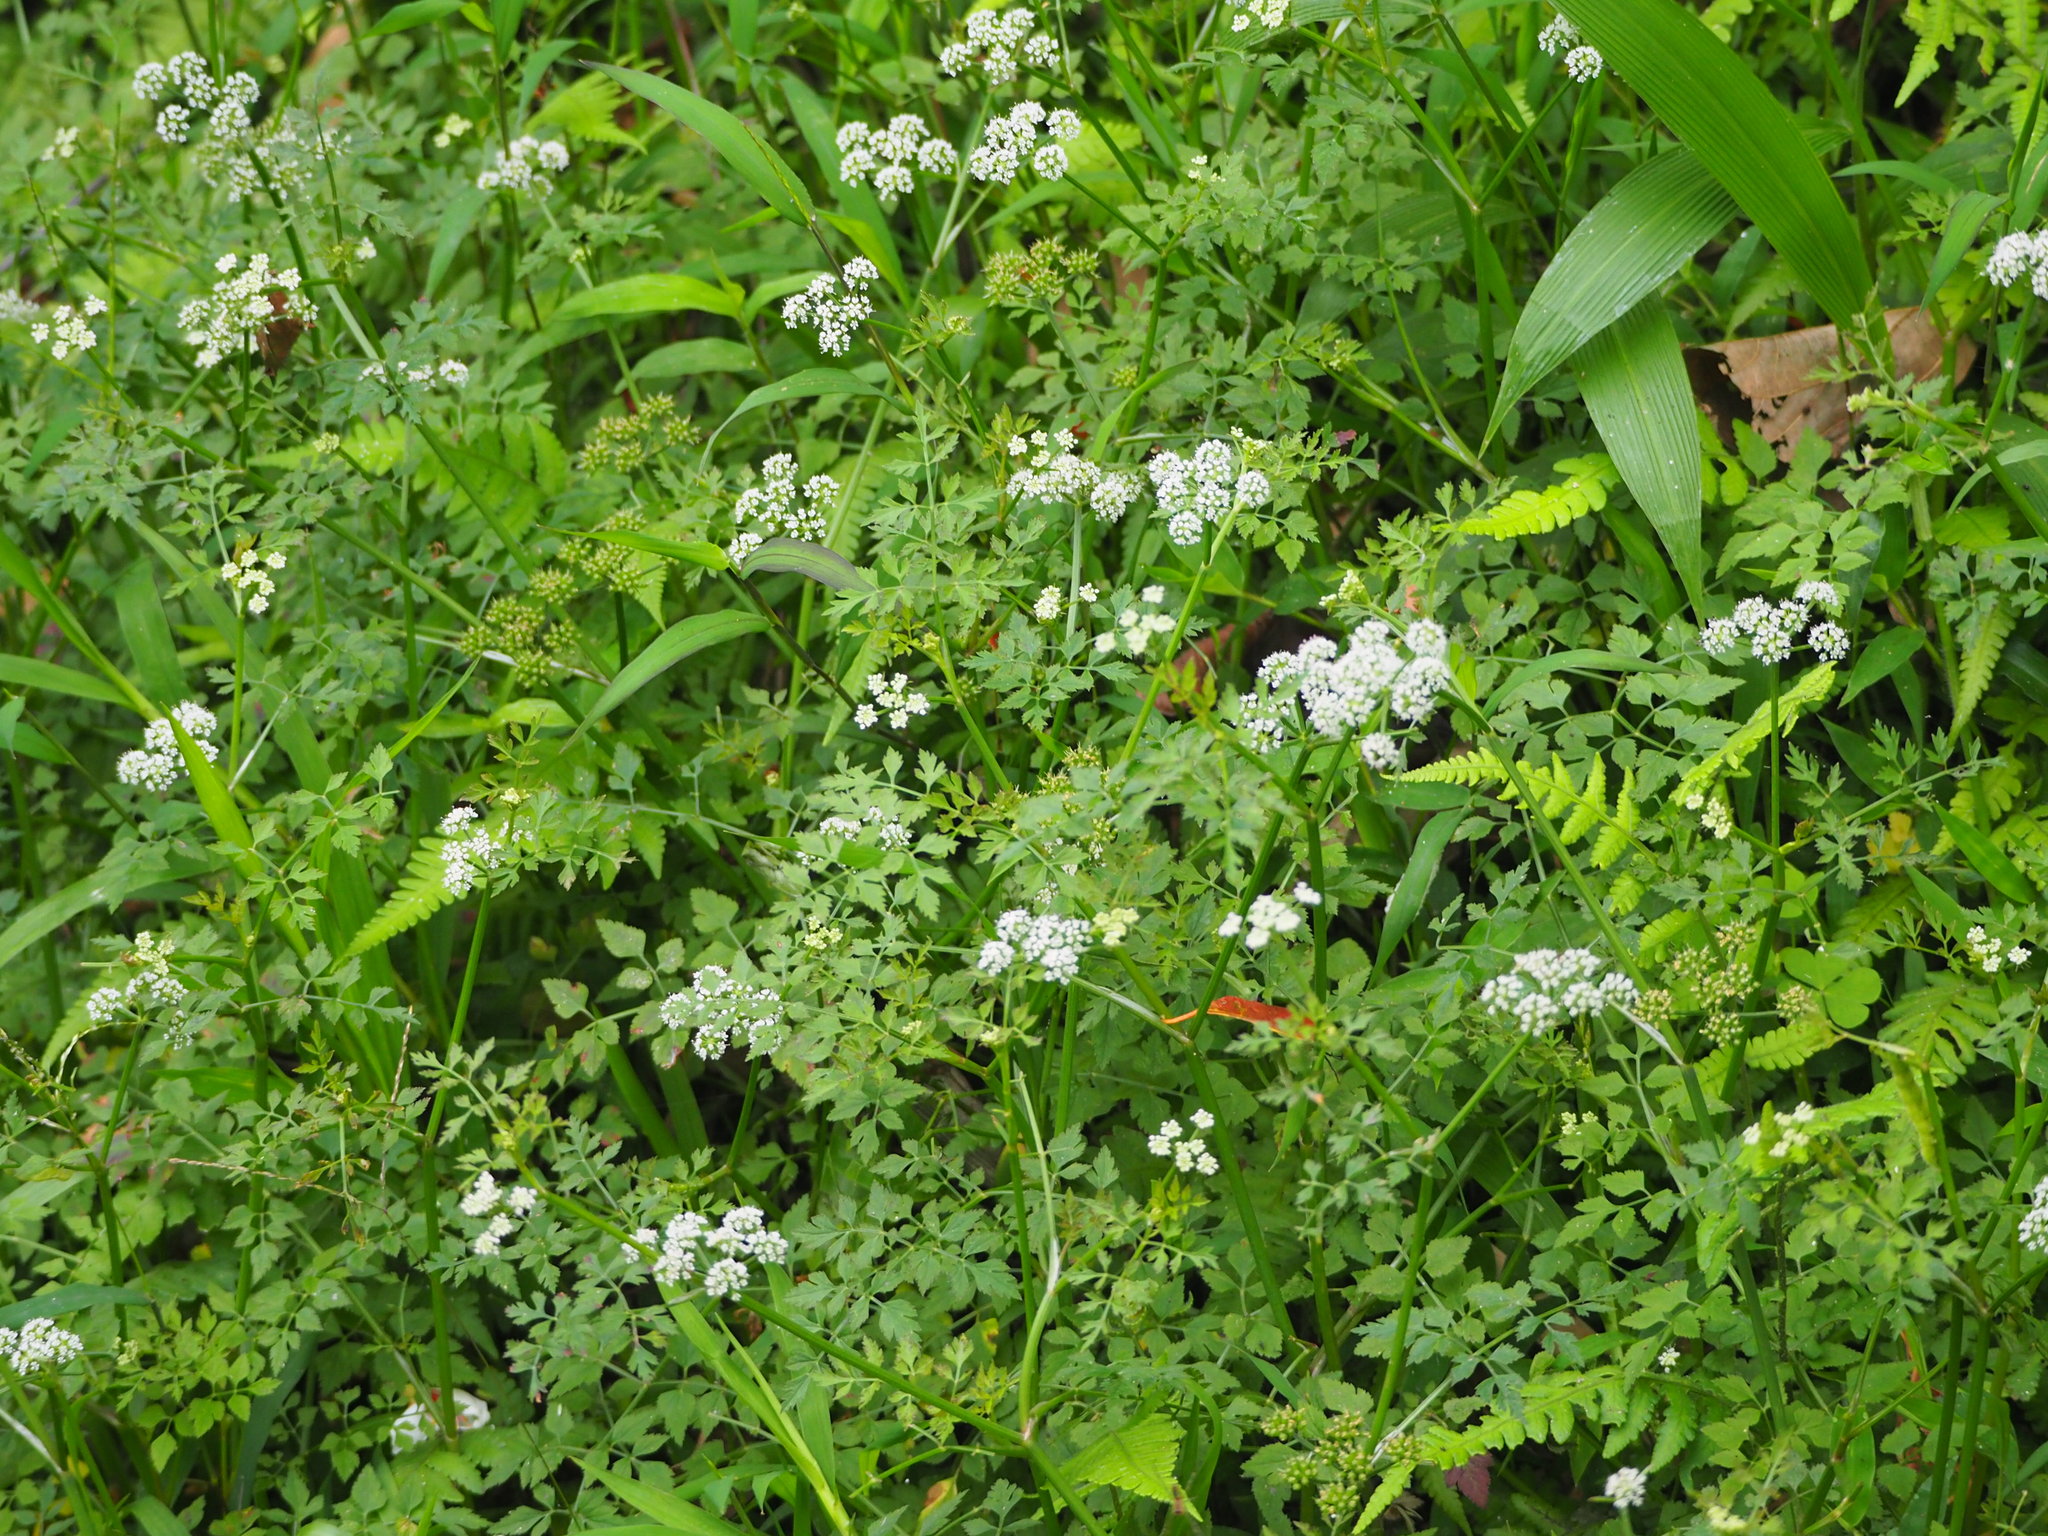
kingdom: Plantae
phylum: Tracheophyta
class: Magnoliopsida
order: Apiales
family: Apiaceae
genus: Oenanthe
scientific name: Oenanthe javanica
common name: Java water-dropwort
